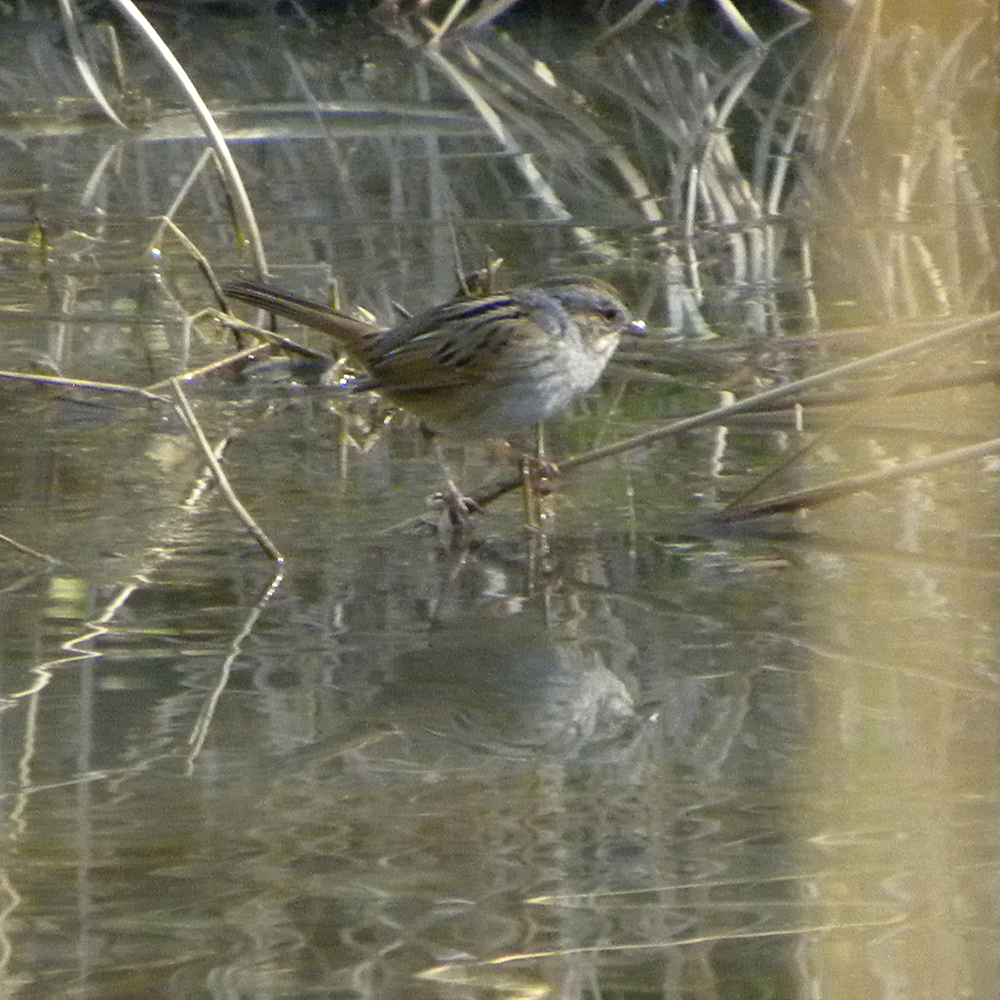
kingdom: Animalia
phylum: Chordata
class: Aves
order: Passeriformes
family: Passerellidae
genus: Melospiza
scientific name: Melospiza georgiana
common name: Swamp sparrow
